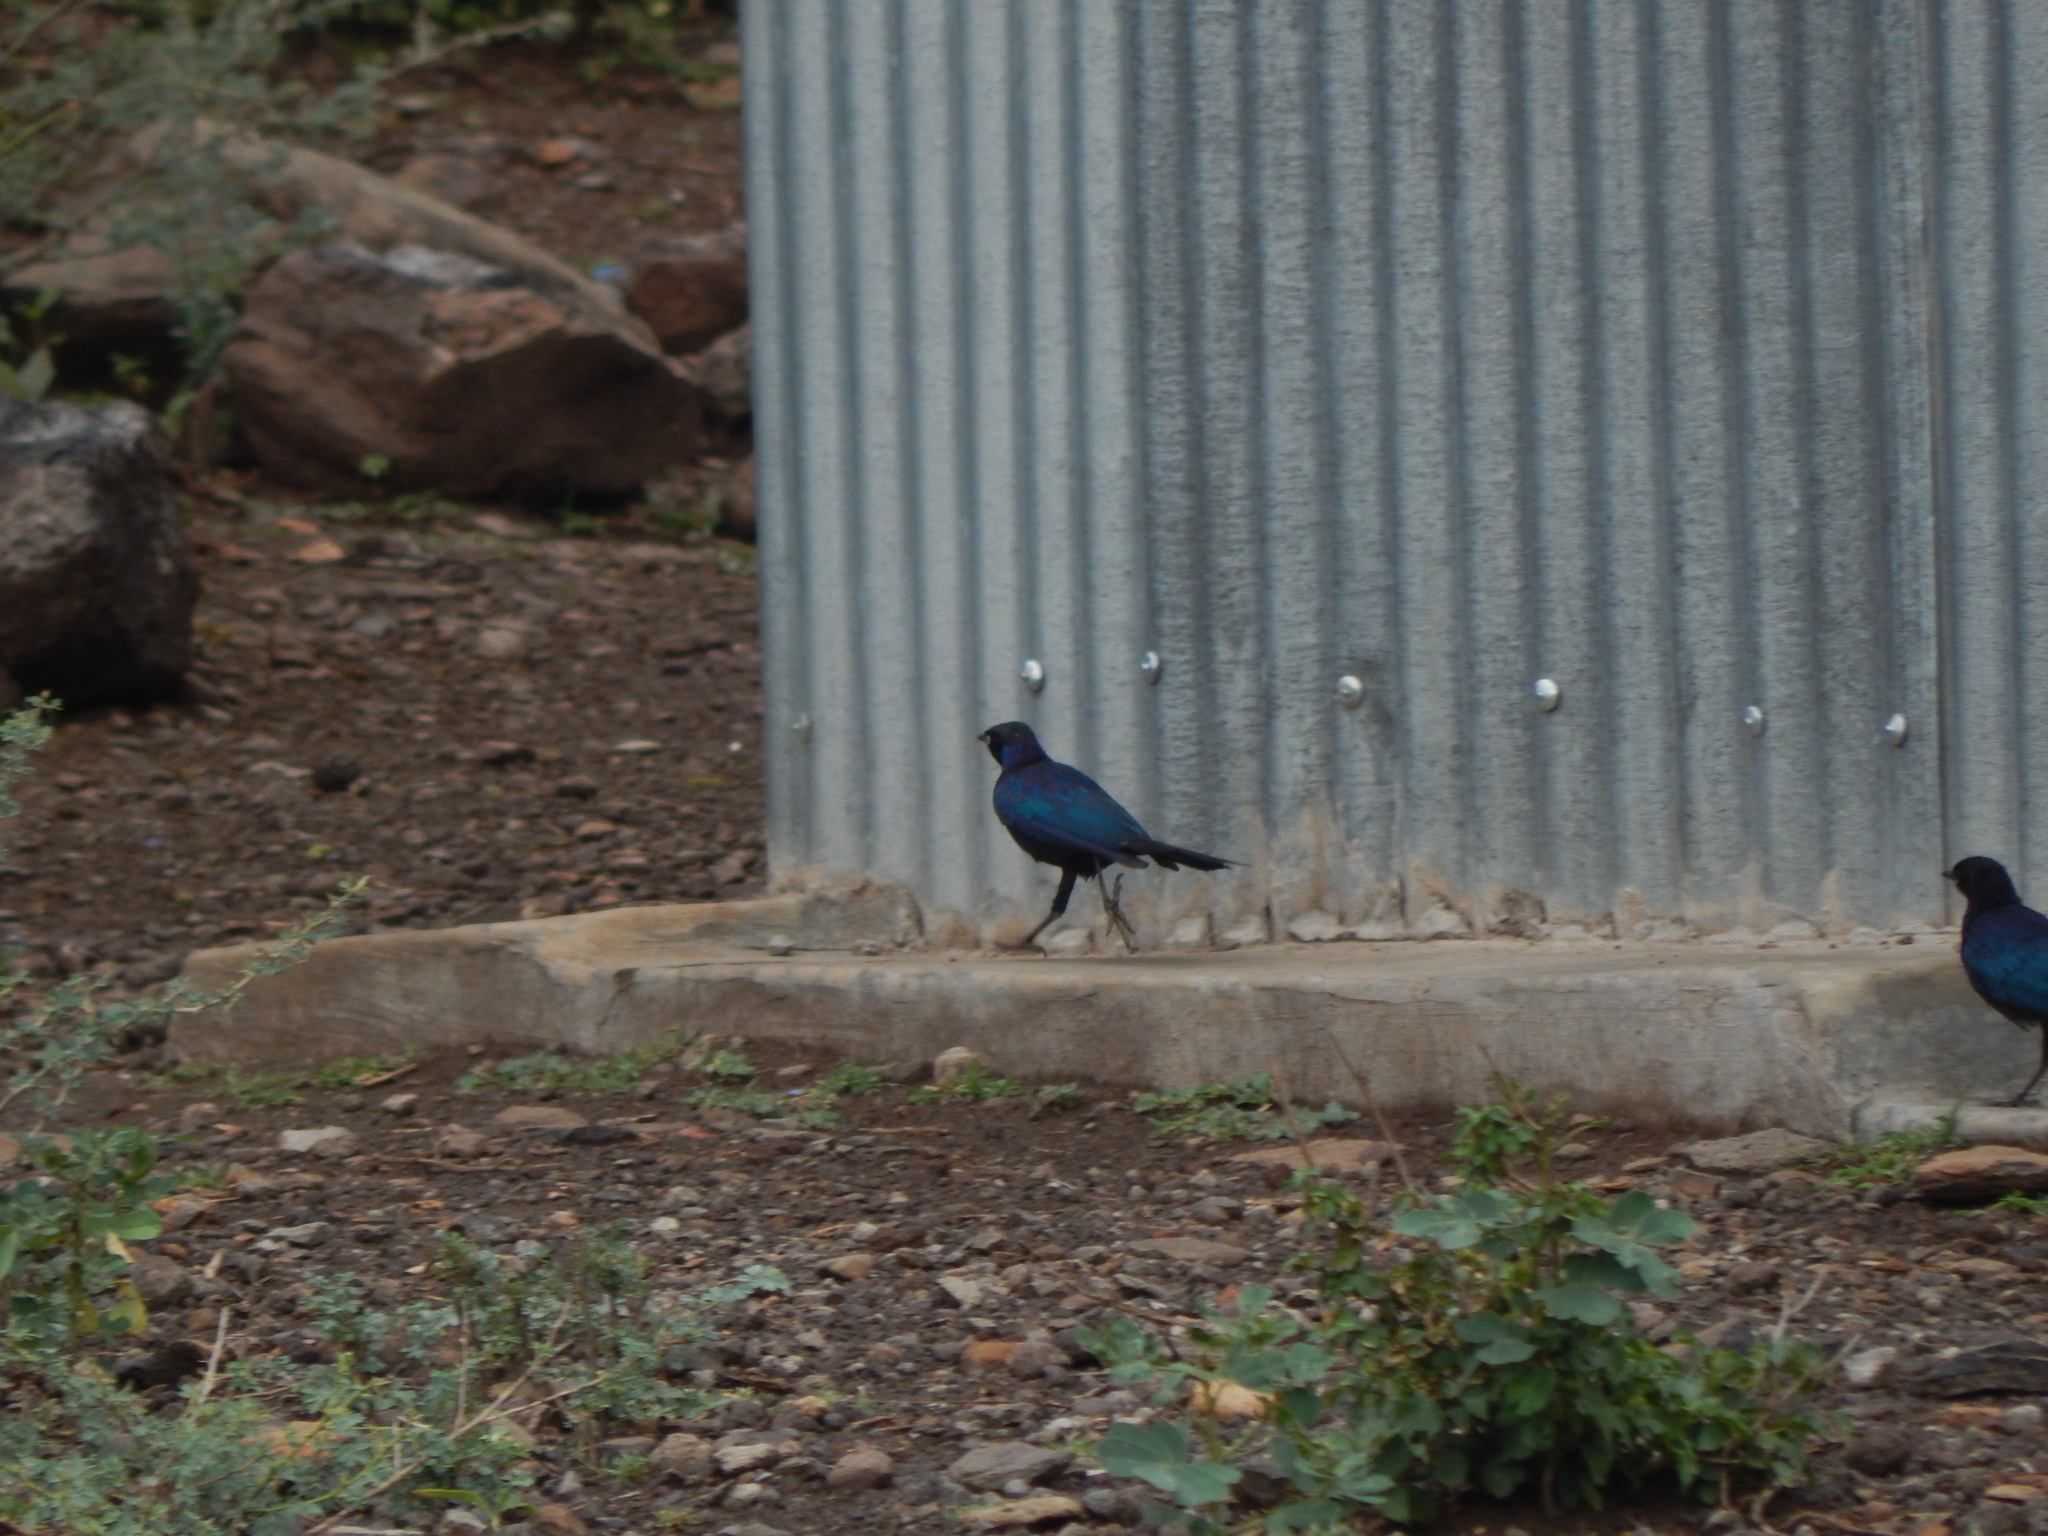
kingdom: Animalia
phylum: Chordata
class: Aves
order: Passeriformes
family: Sturnidae
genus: Lamprotornis
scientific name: Lamprotornis purpuroptera
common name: Rüppell's starling
